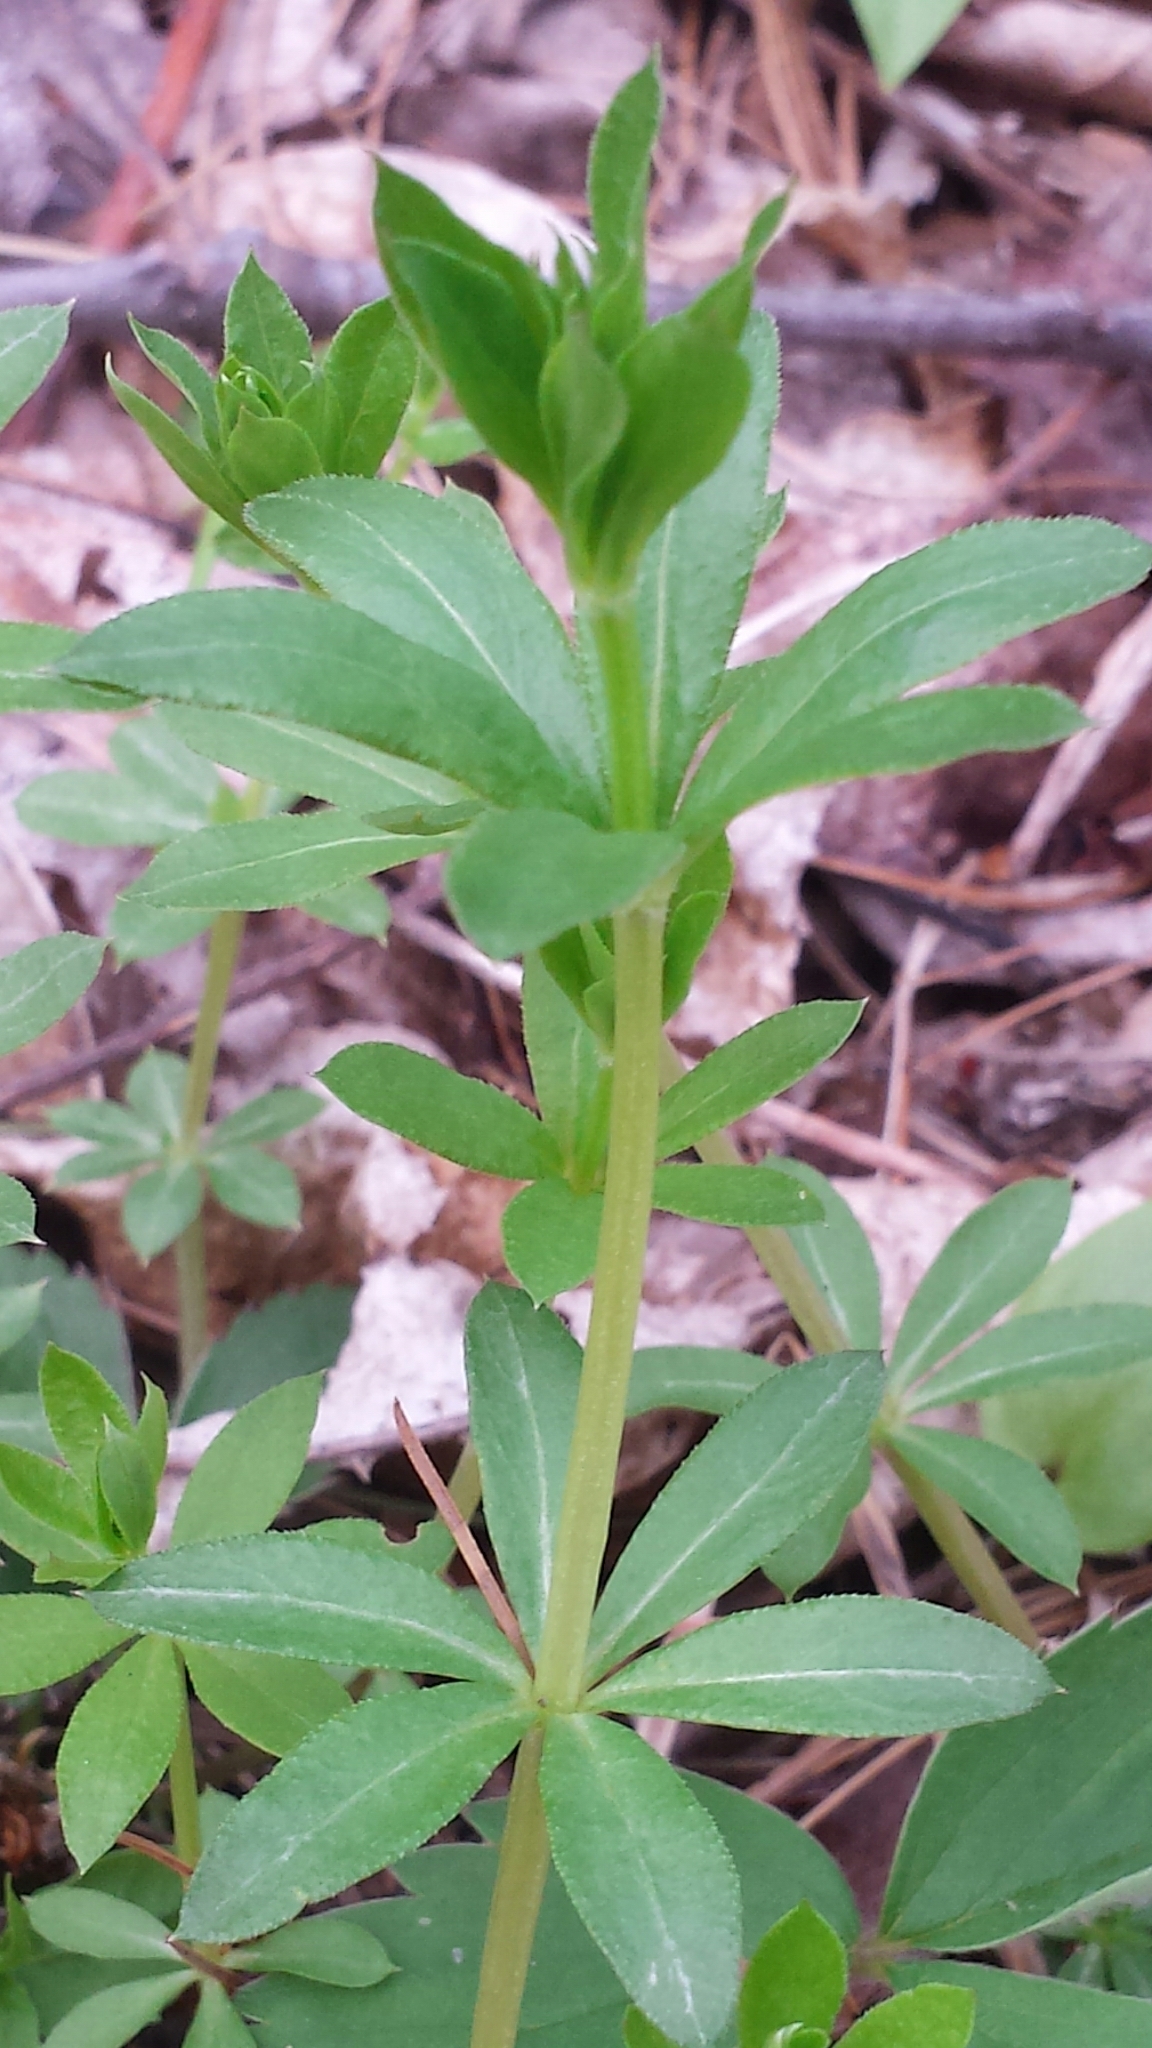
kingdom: Plantae
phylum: Tracheophyta
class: Magnoliopsida
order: Gentianales
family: Rubiaceae
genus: Galium
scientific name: Galium triflorum
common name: Fragrant bedstraw
